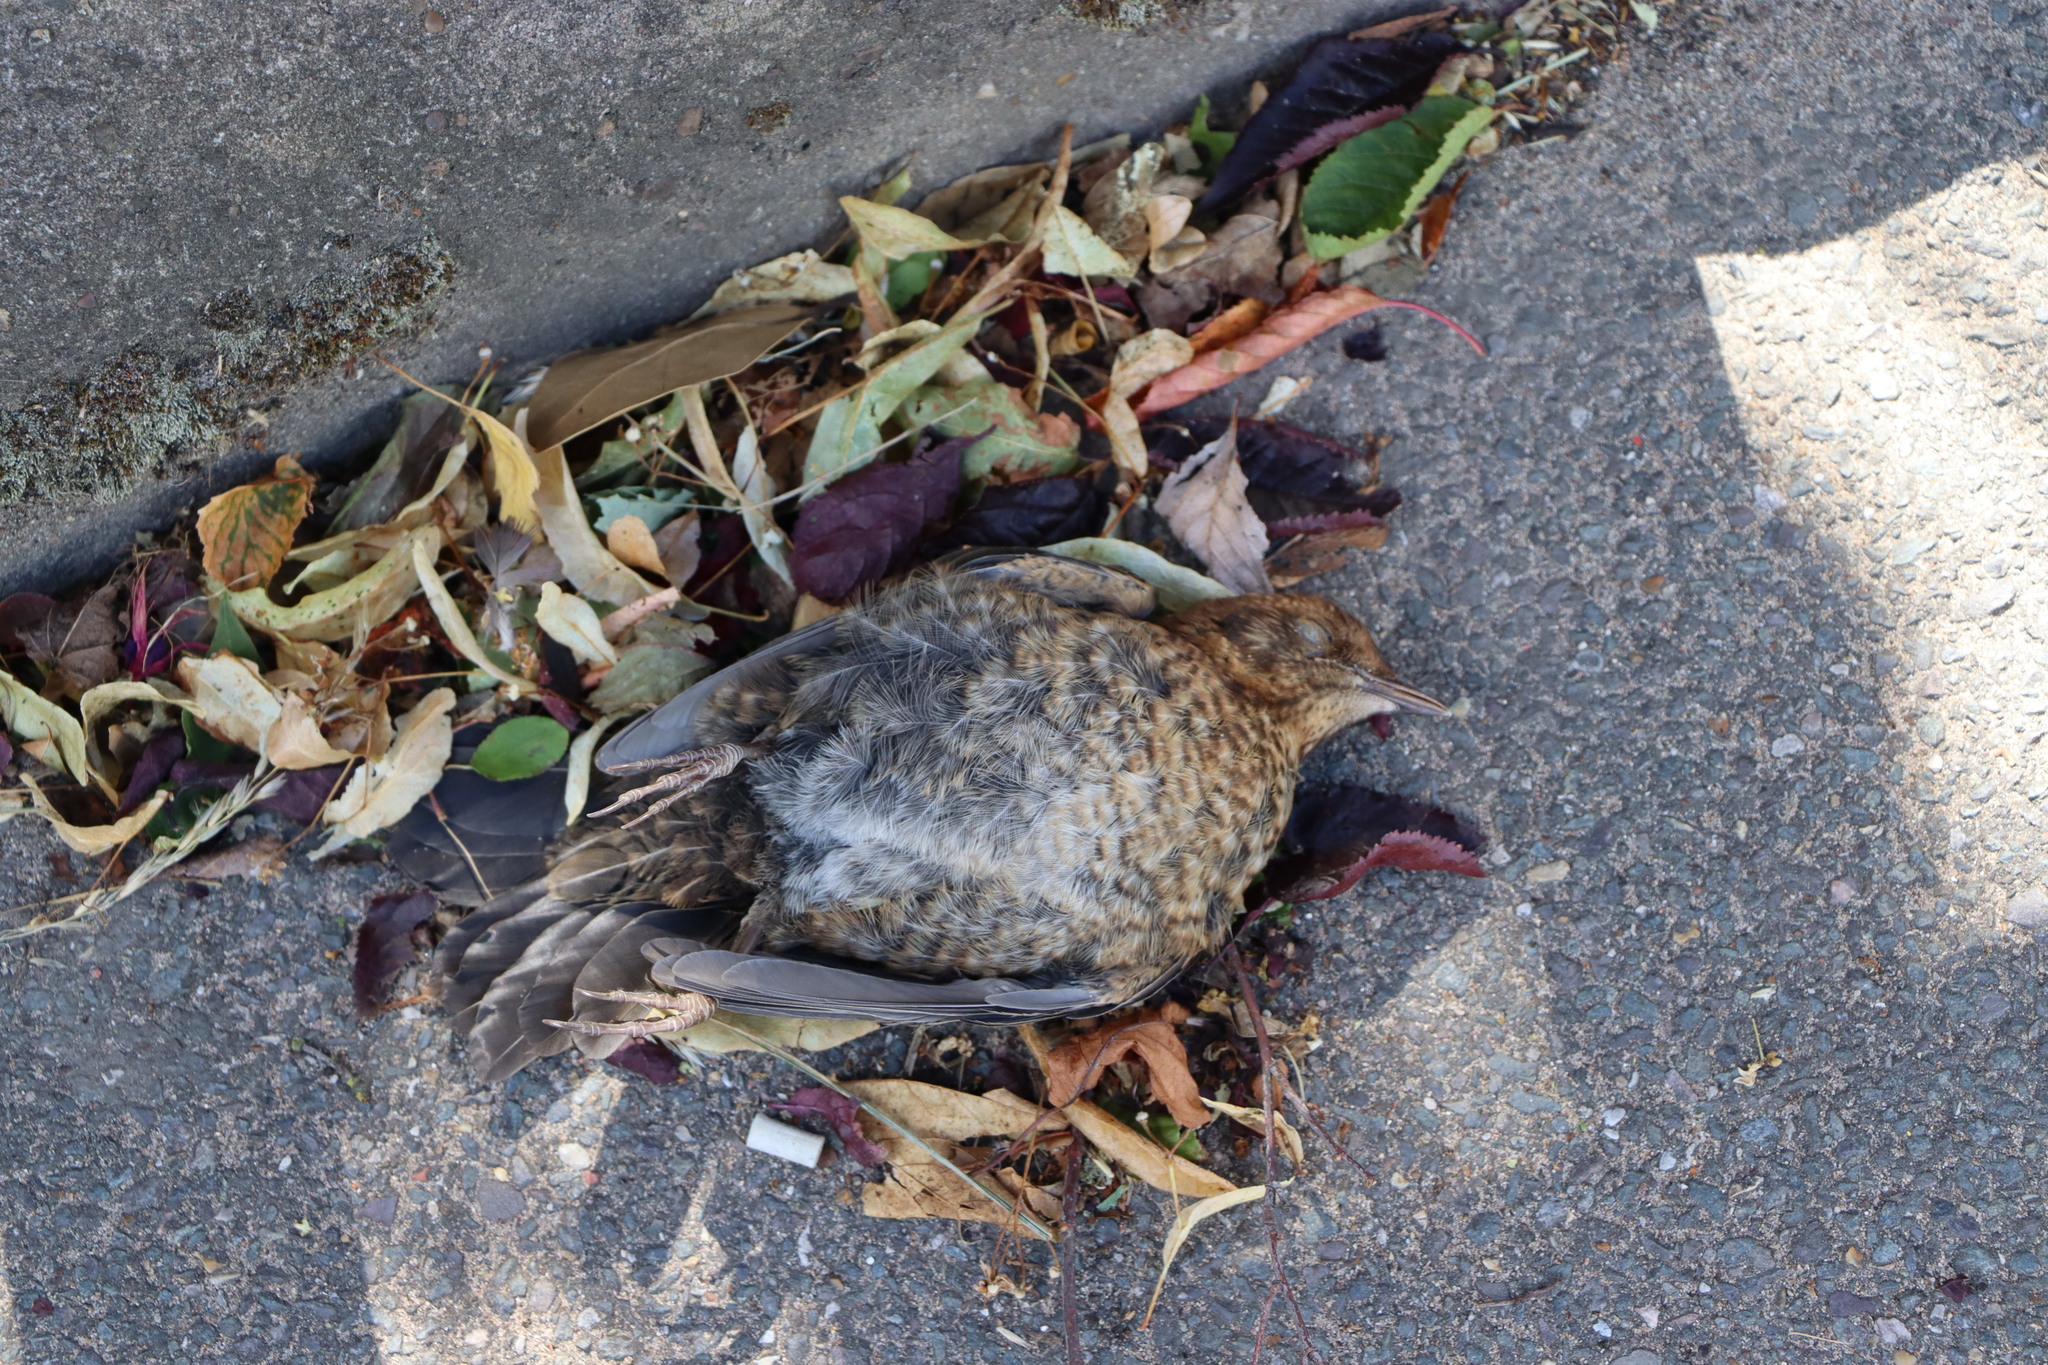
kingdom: Animalia
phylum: Chordata
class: Aves
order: Passeriformes
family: Turdidae
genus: Turdus
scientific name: Turdus merula
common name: Common blackbird
